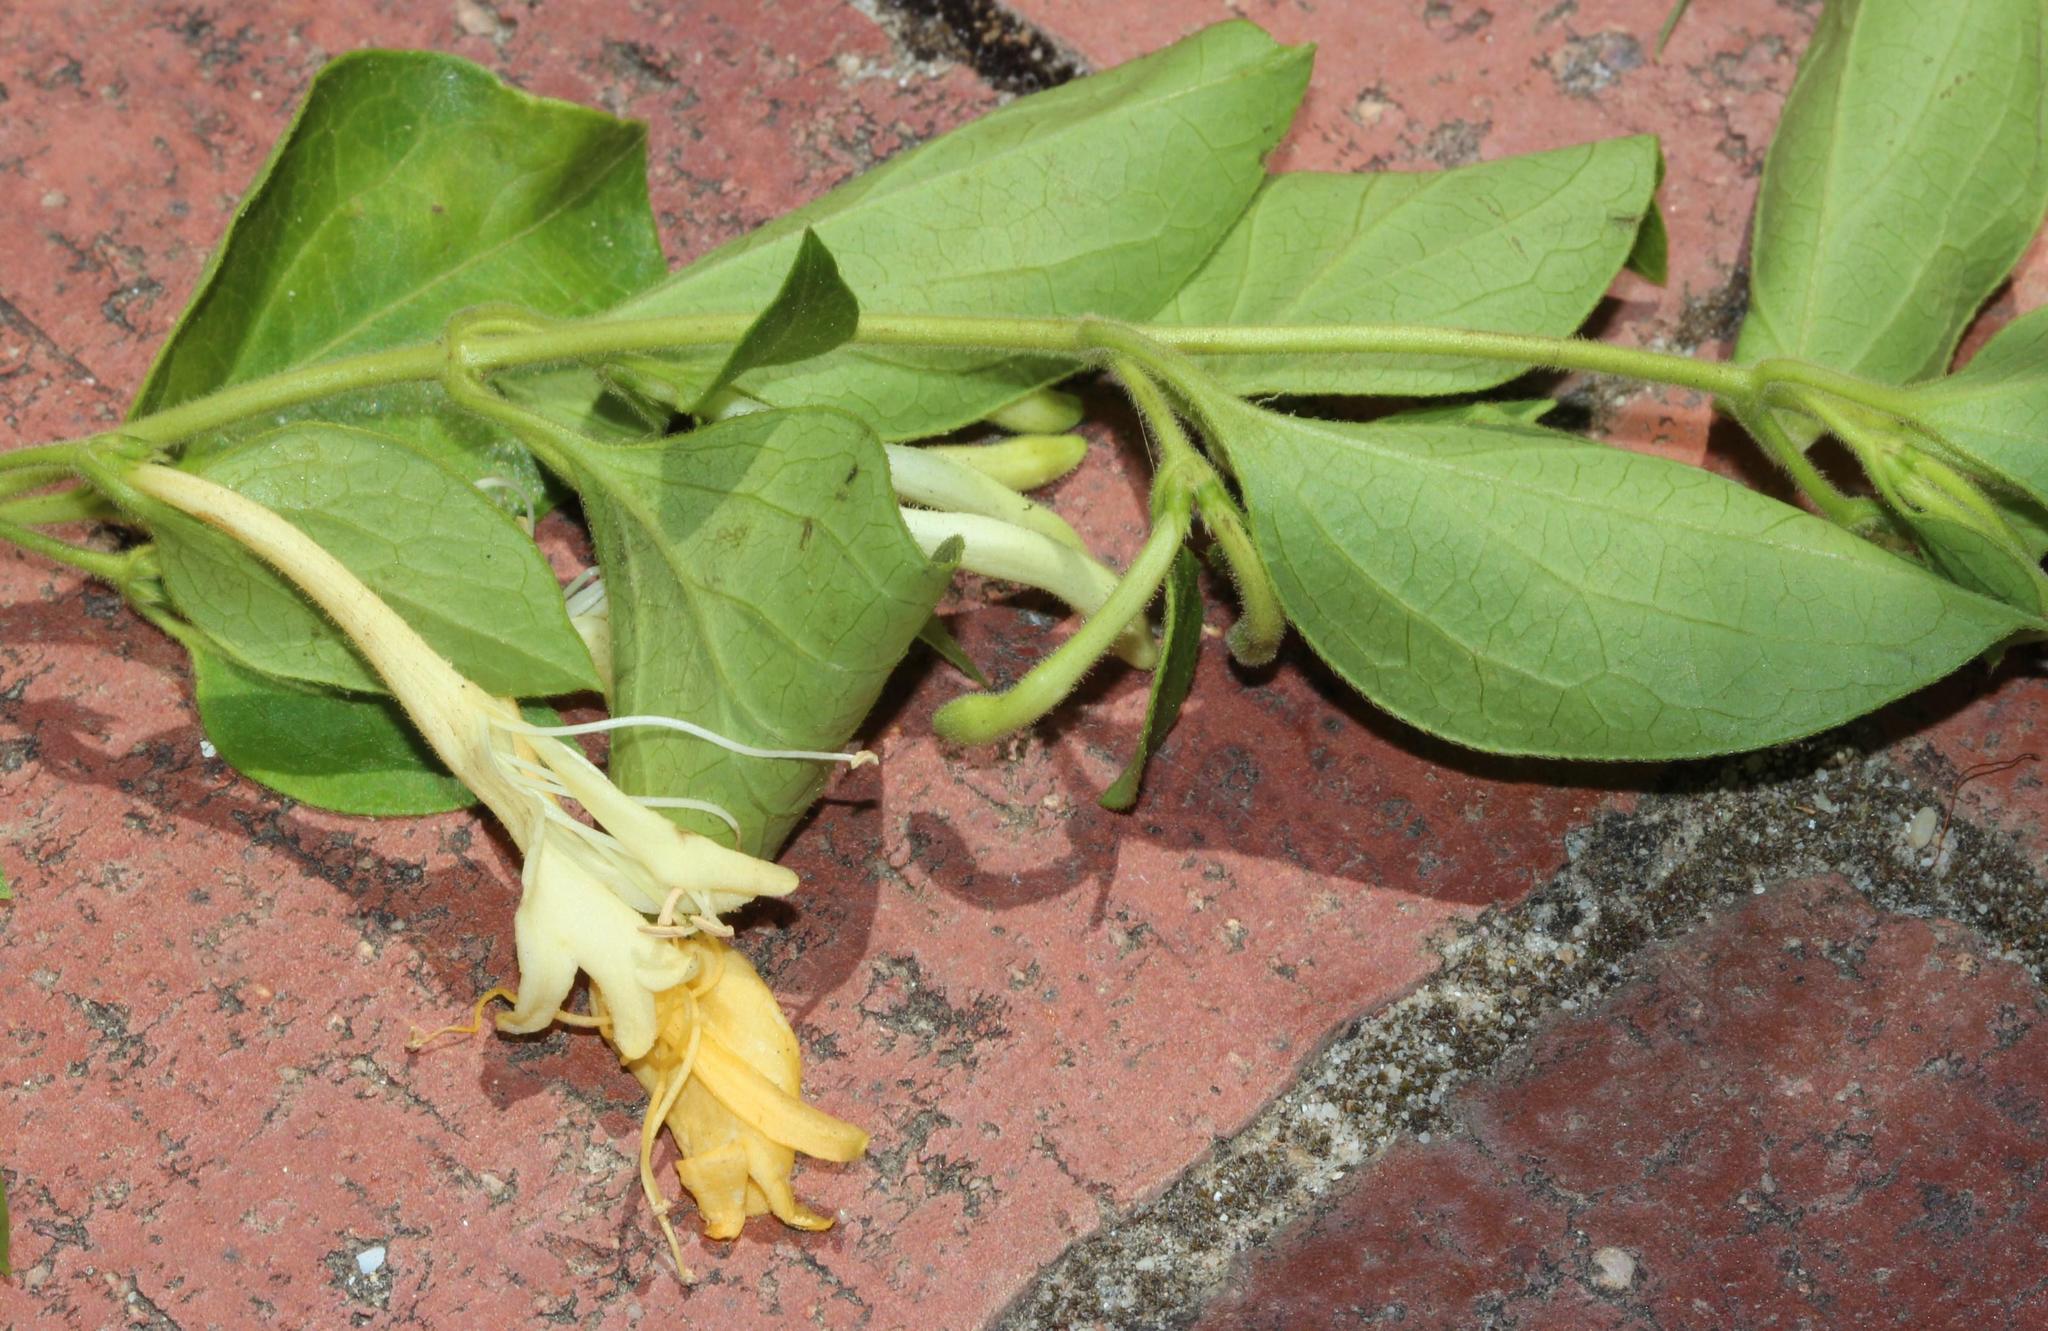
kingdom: Plantae
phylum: Tracheophyta
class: Magnoliopsida
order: Dipsacales
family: Caprifoliaceae
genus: Lonicera
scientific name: Lonicera japonica
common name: Japanese honeysuckle
